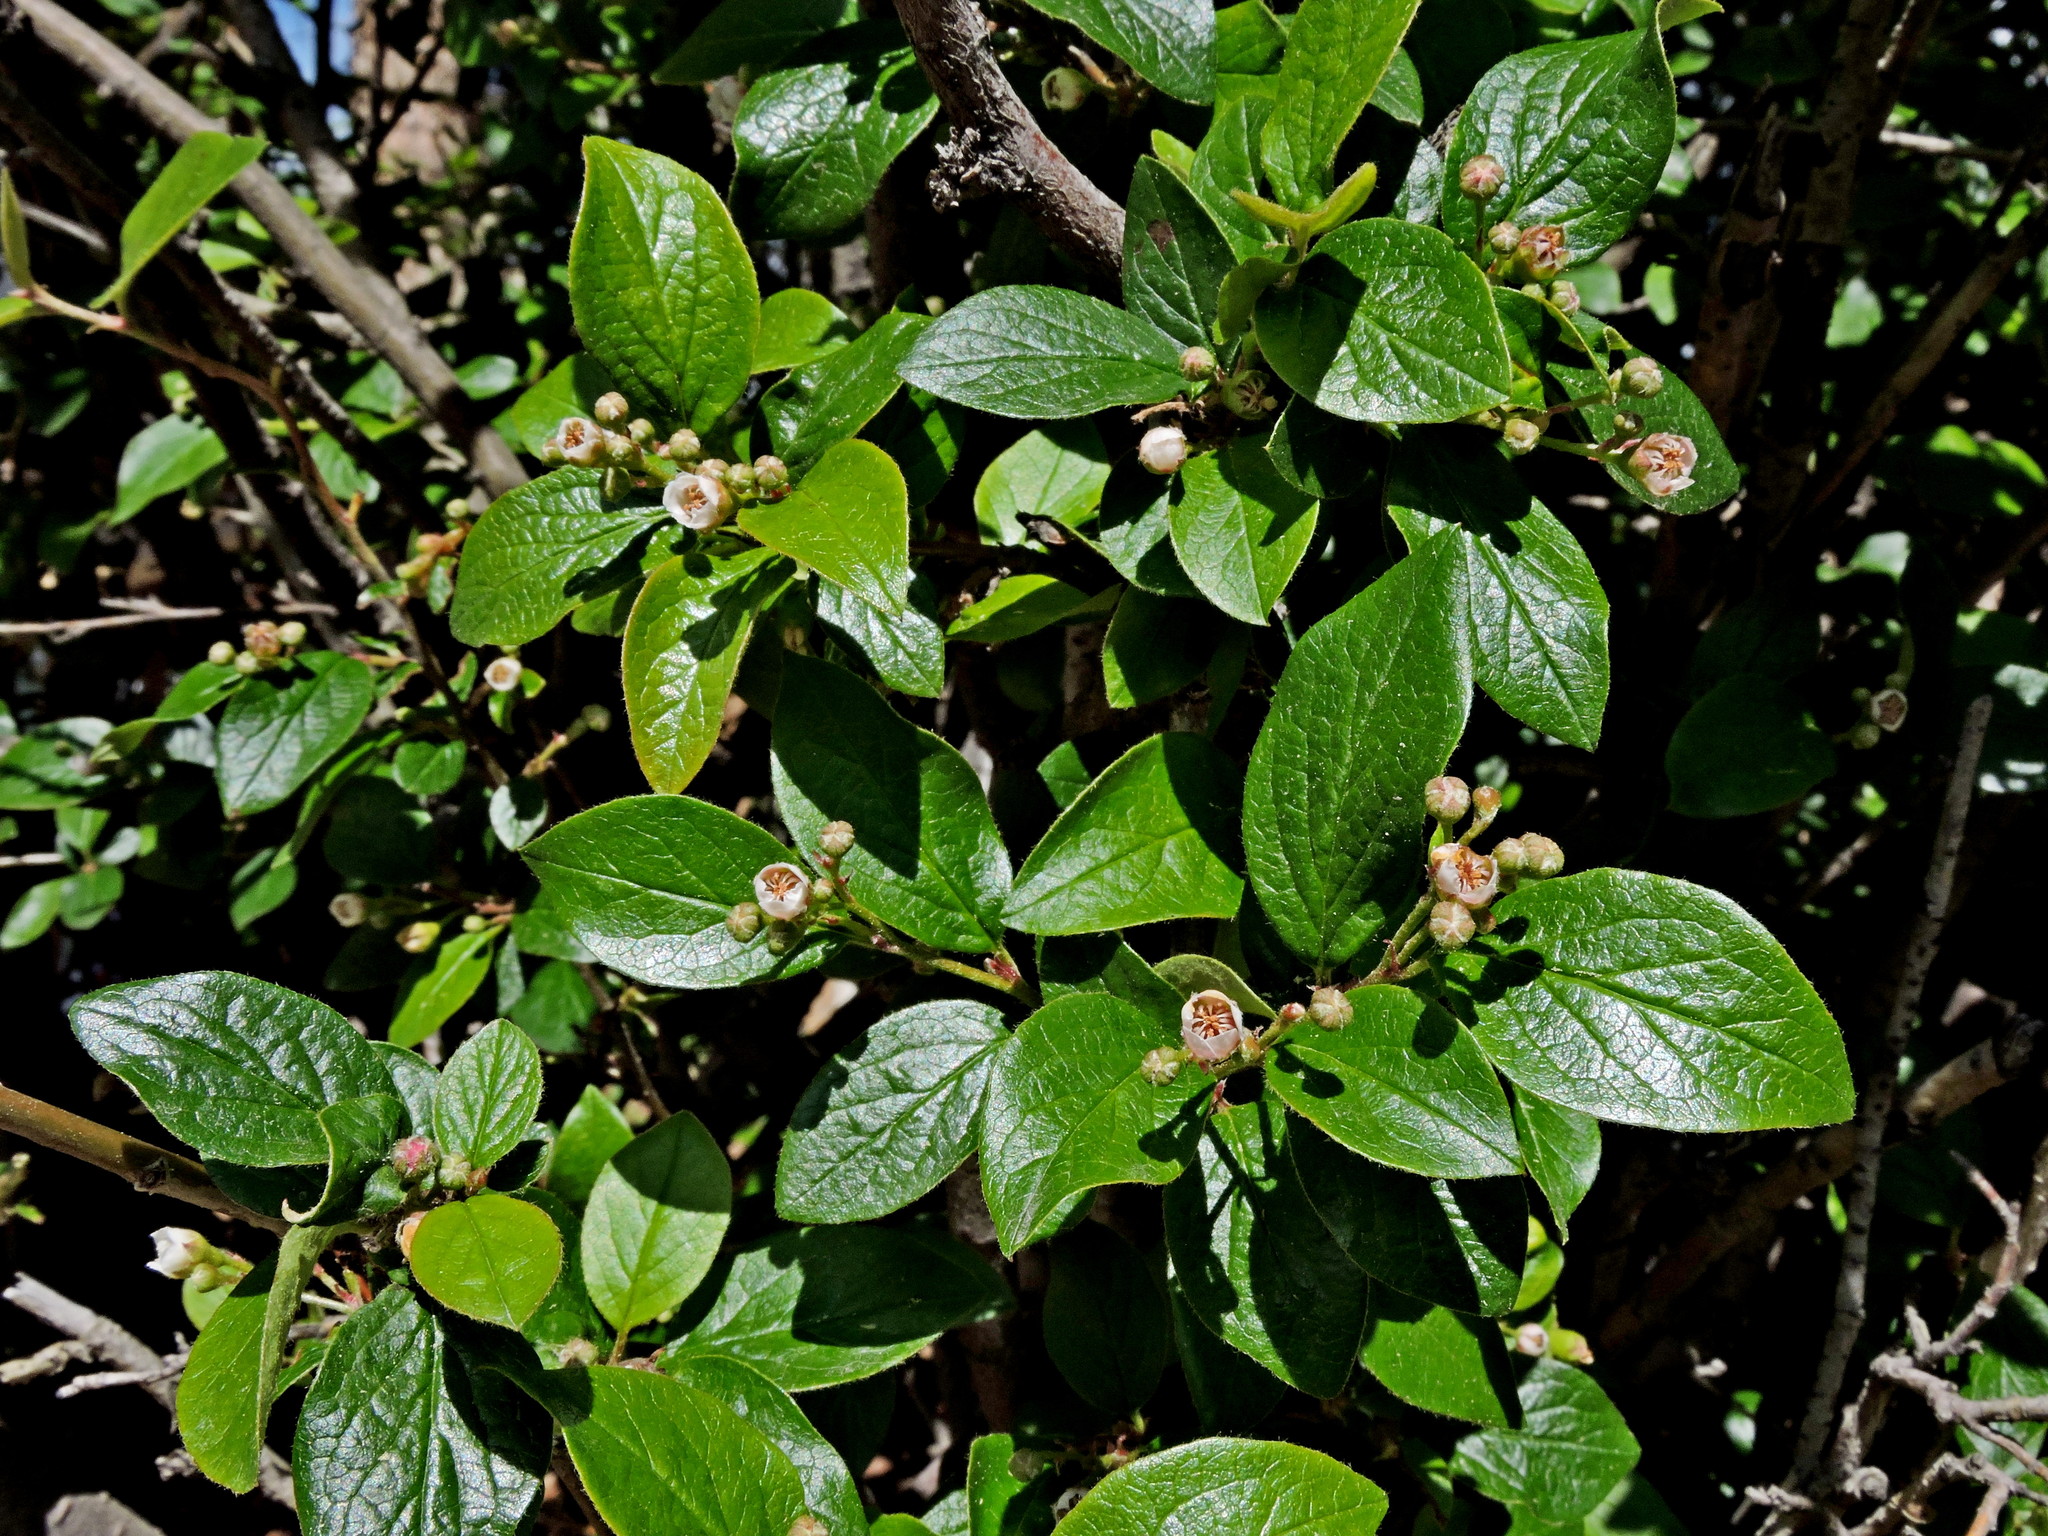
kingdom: Plantae
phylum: Tracheophyta
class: Magnoliopsida
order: Rosales
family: Rosaceae
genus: Cotoneaster
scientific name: Cotoneaster acutifolius
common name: Peking cotoneaster
